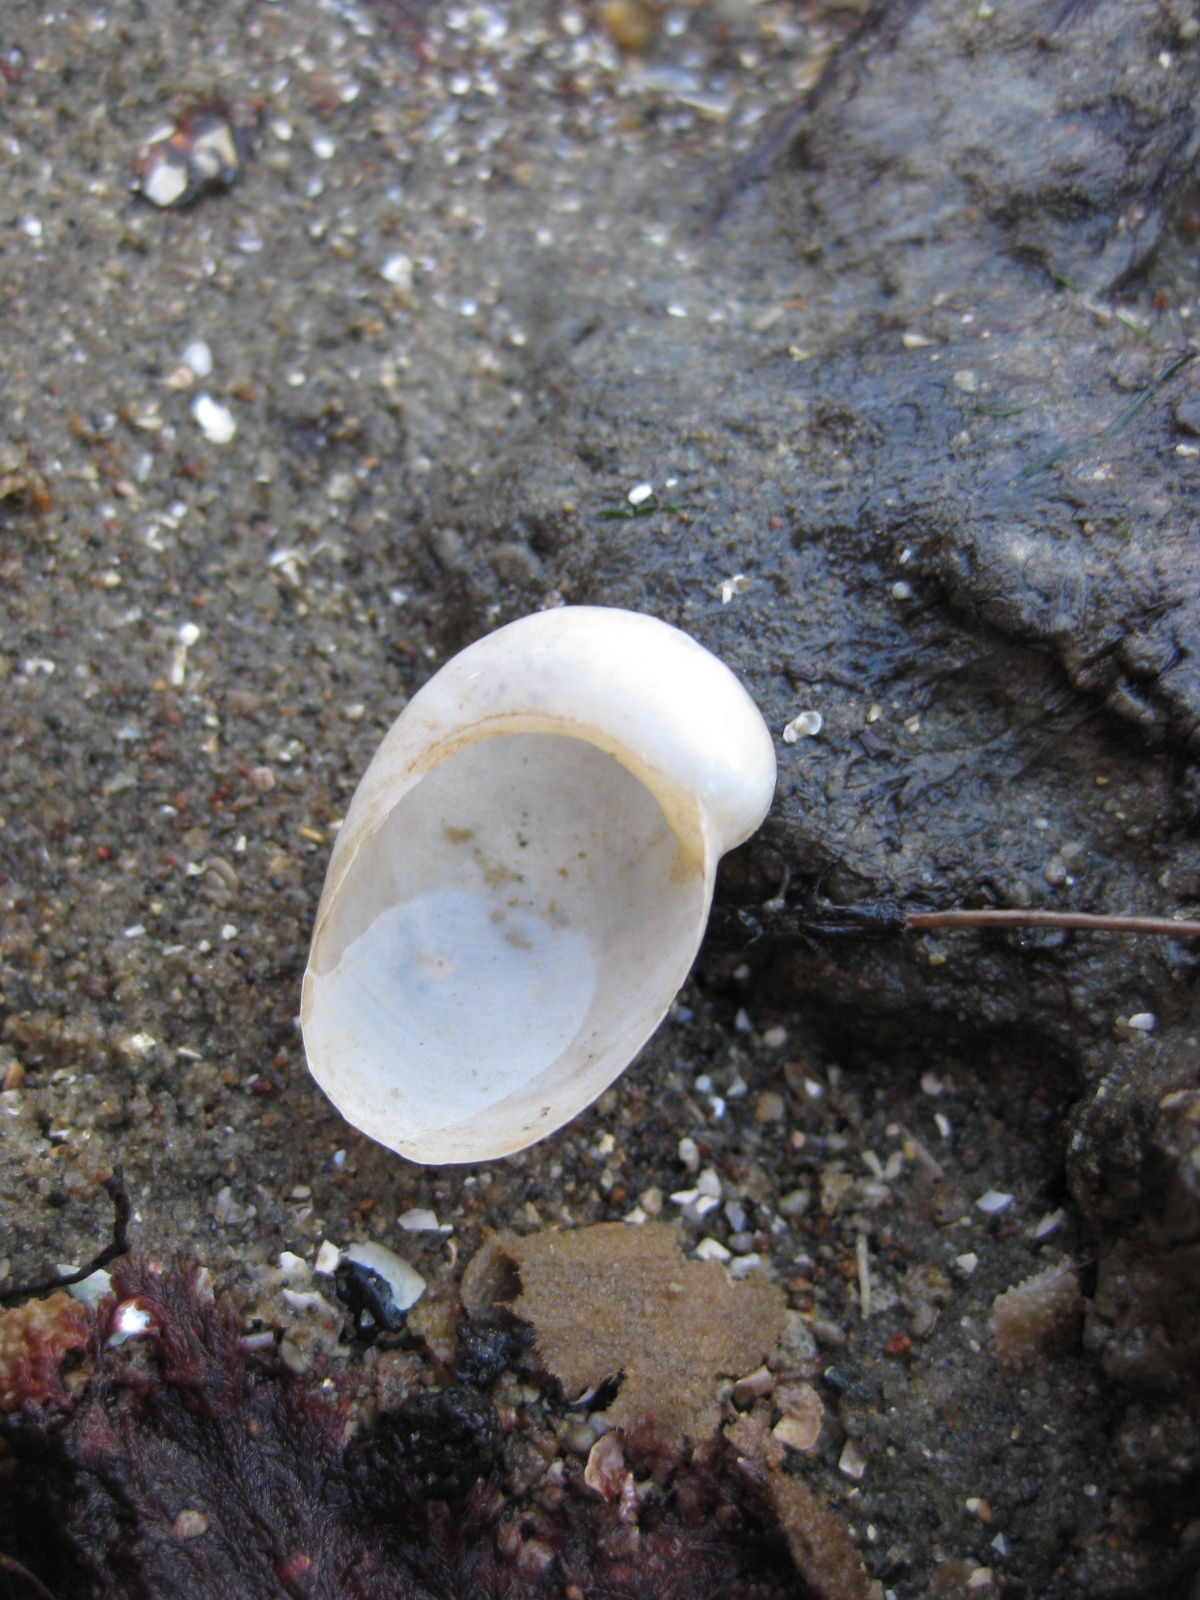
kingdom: Animalia
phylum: Mollusca
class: Gastropoda
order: Littorinimorpha
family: Velutinidae
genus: Lamellaria
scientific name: Lamellaria ophione
